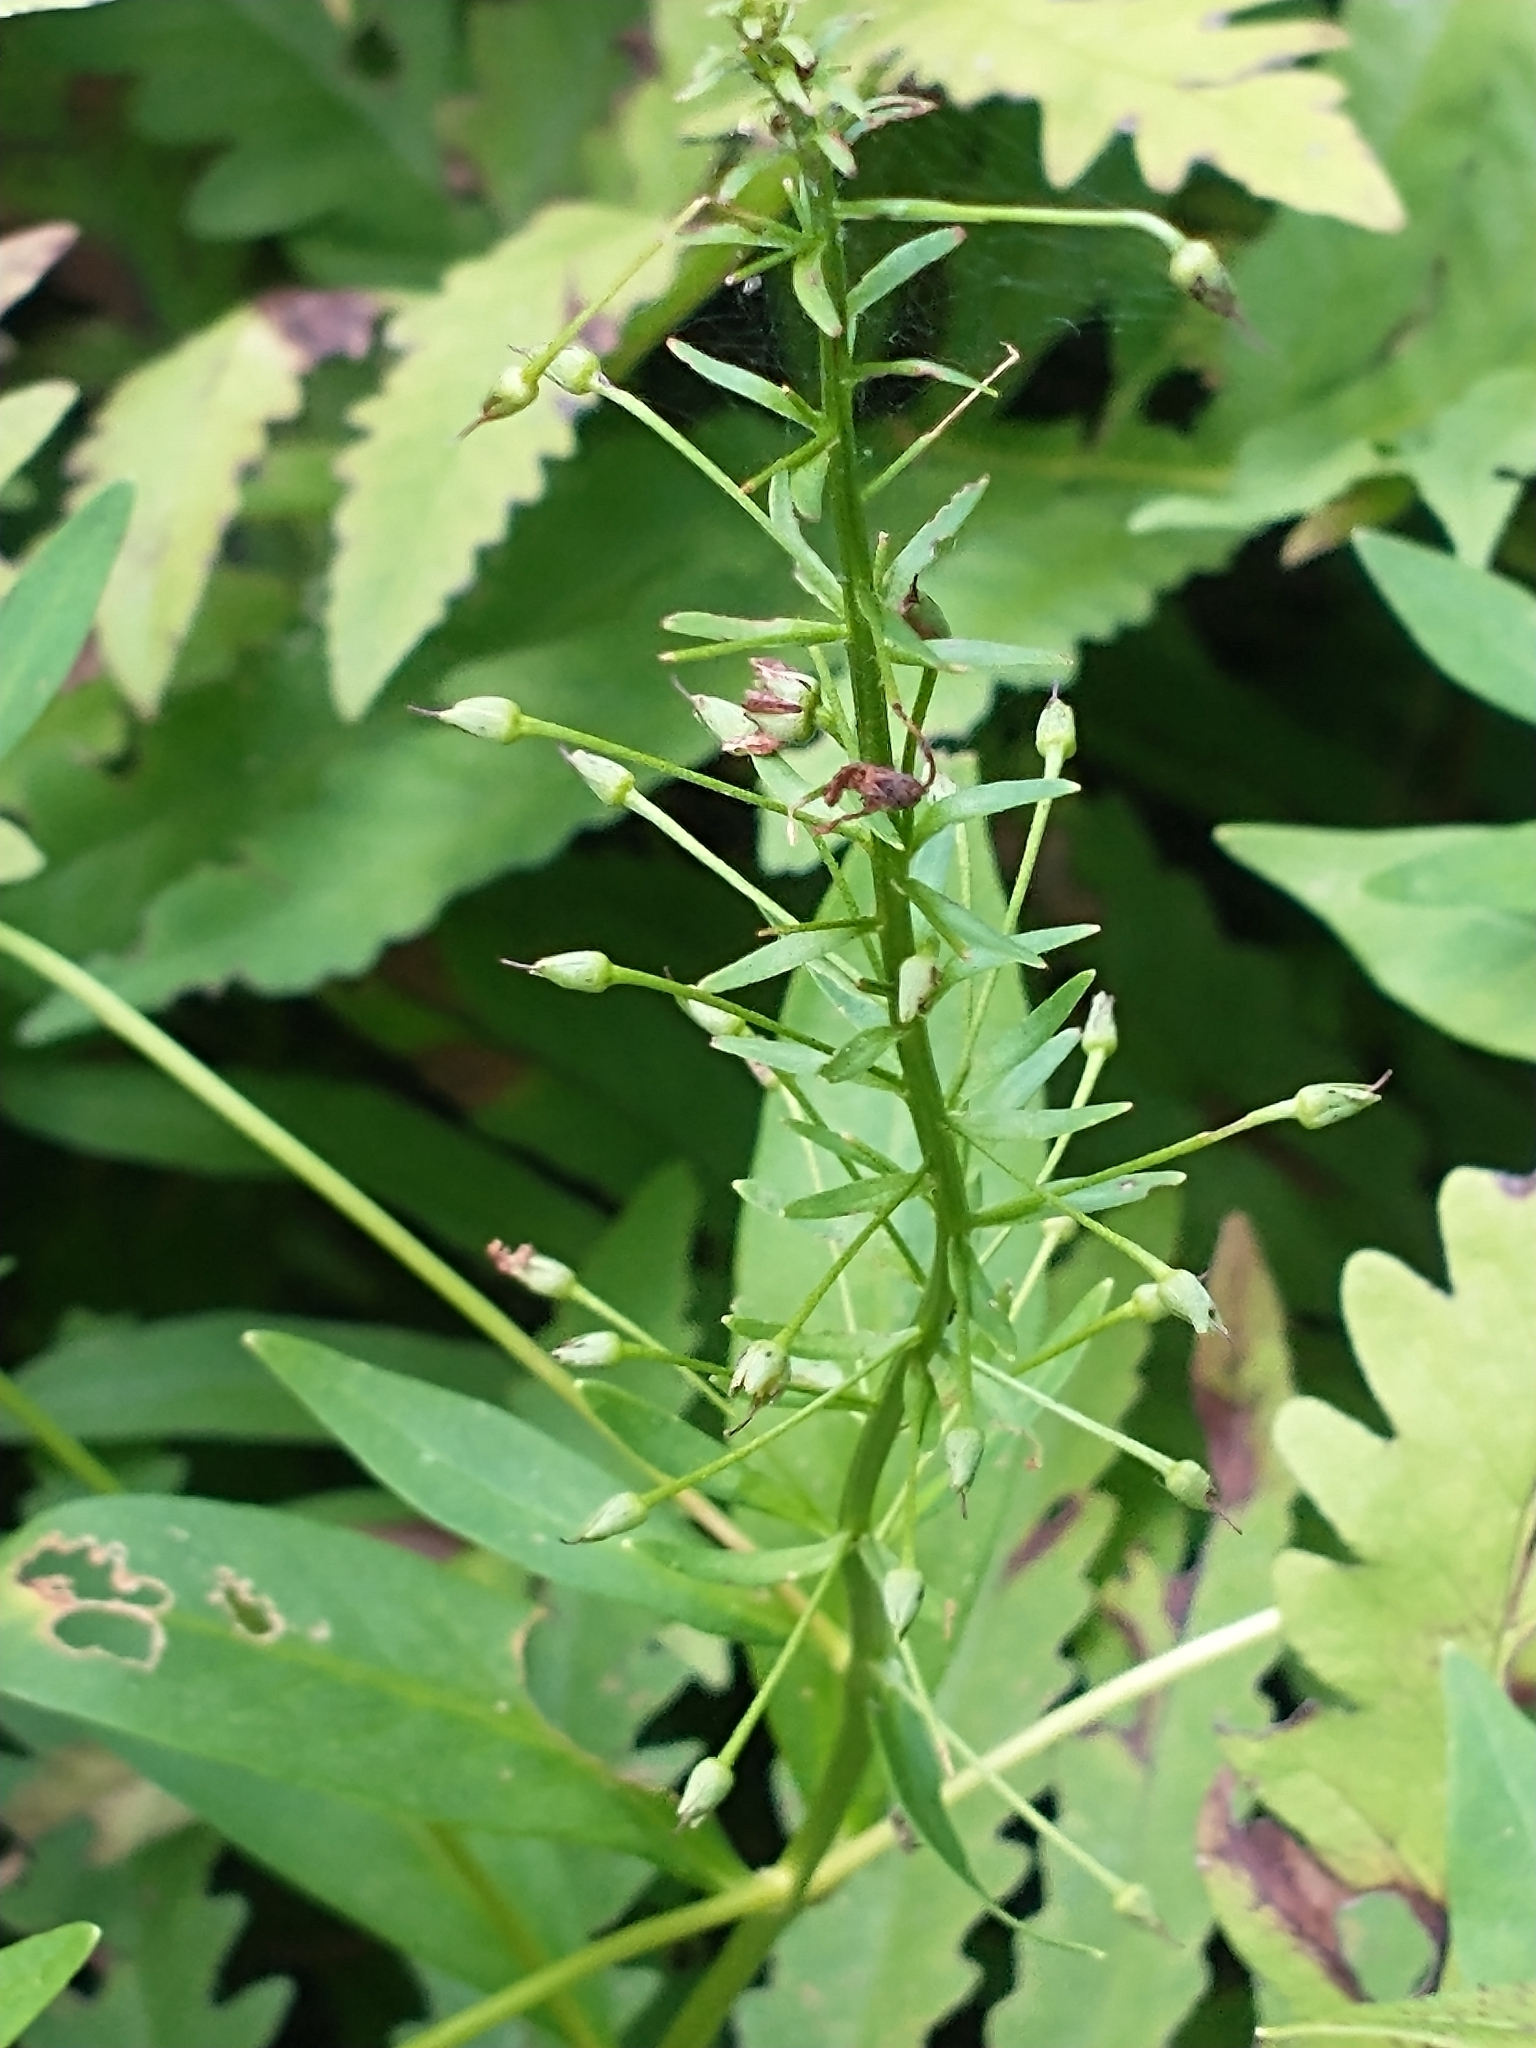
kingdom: Plantae
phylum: Tracheophyta
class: Magnoliopsida
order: Ericales
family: Primulaceae
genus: Lysimachia
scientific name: Lysimachia terrestris
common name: Lake loosestrife
